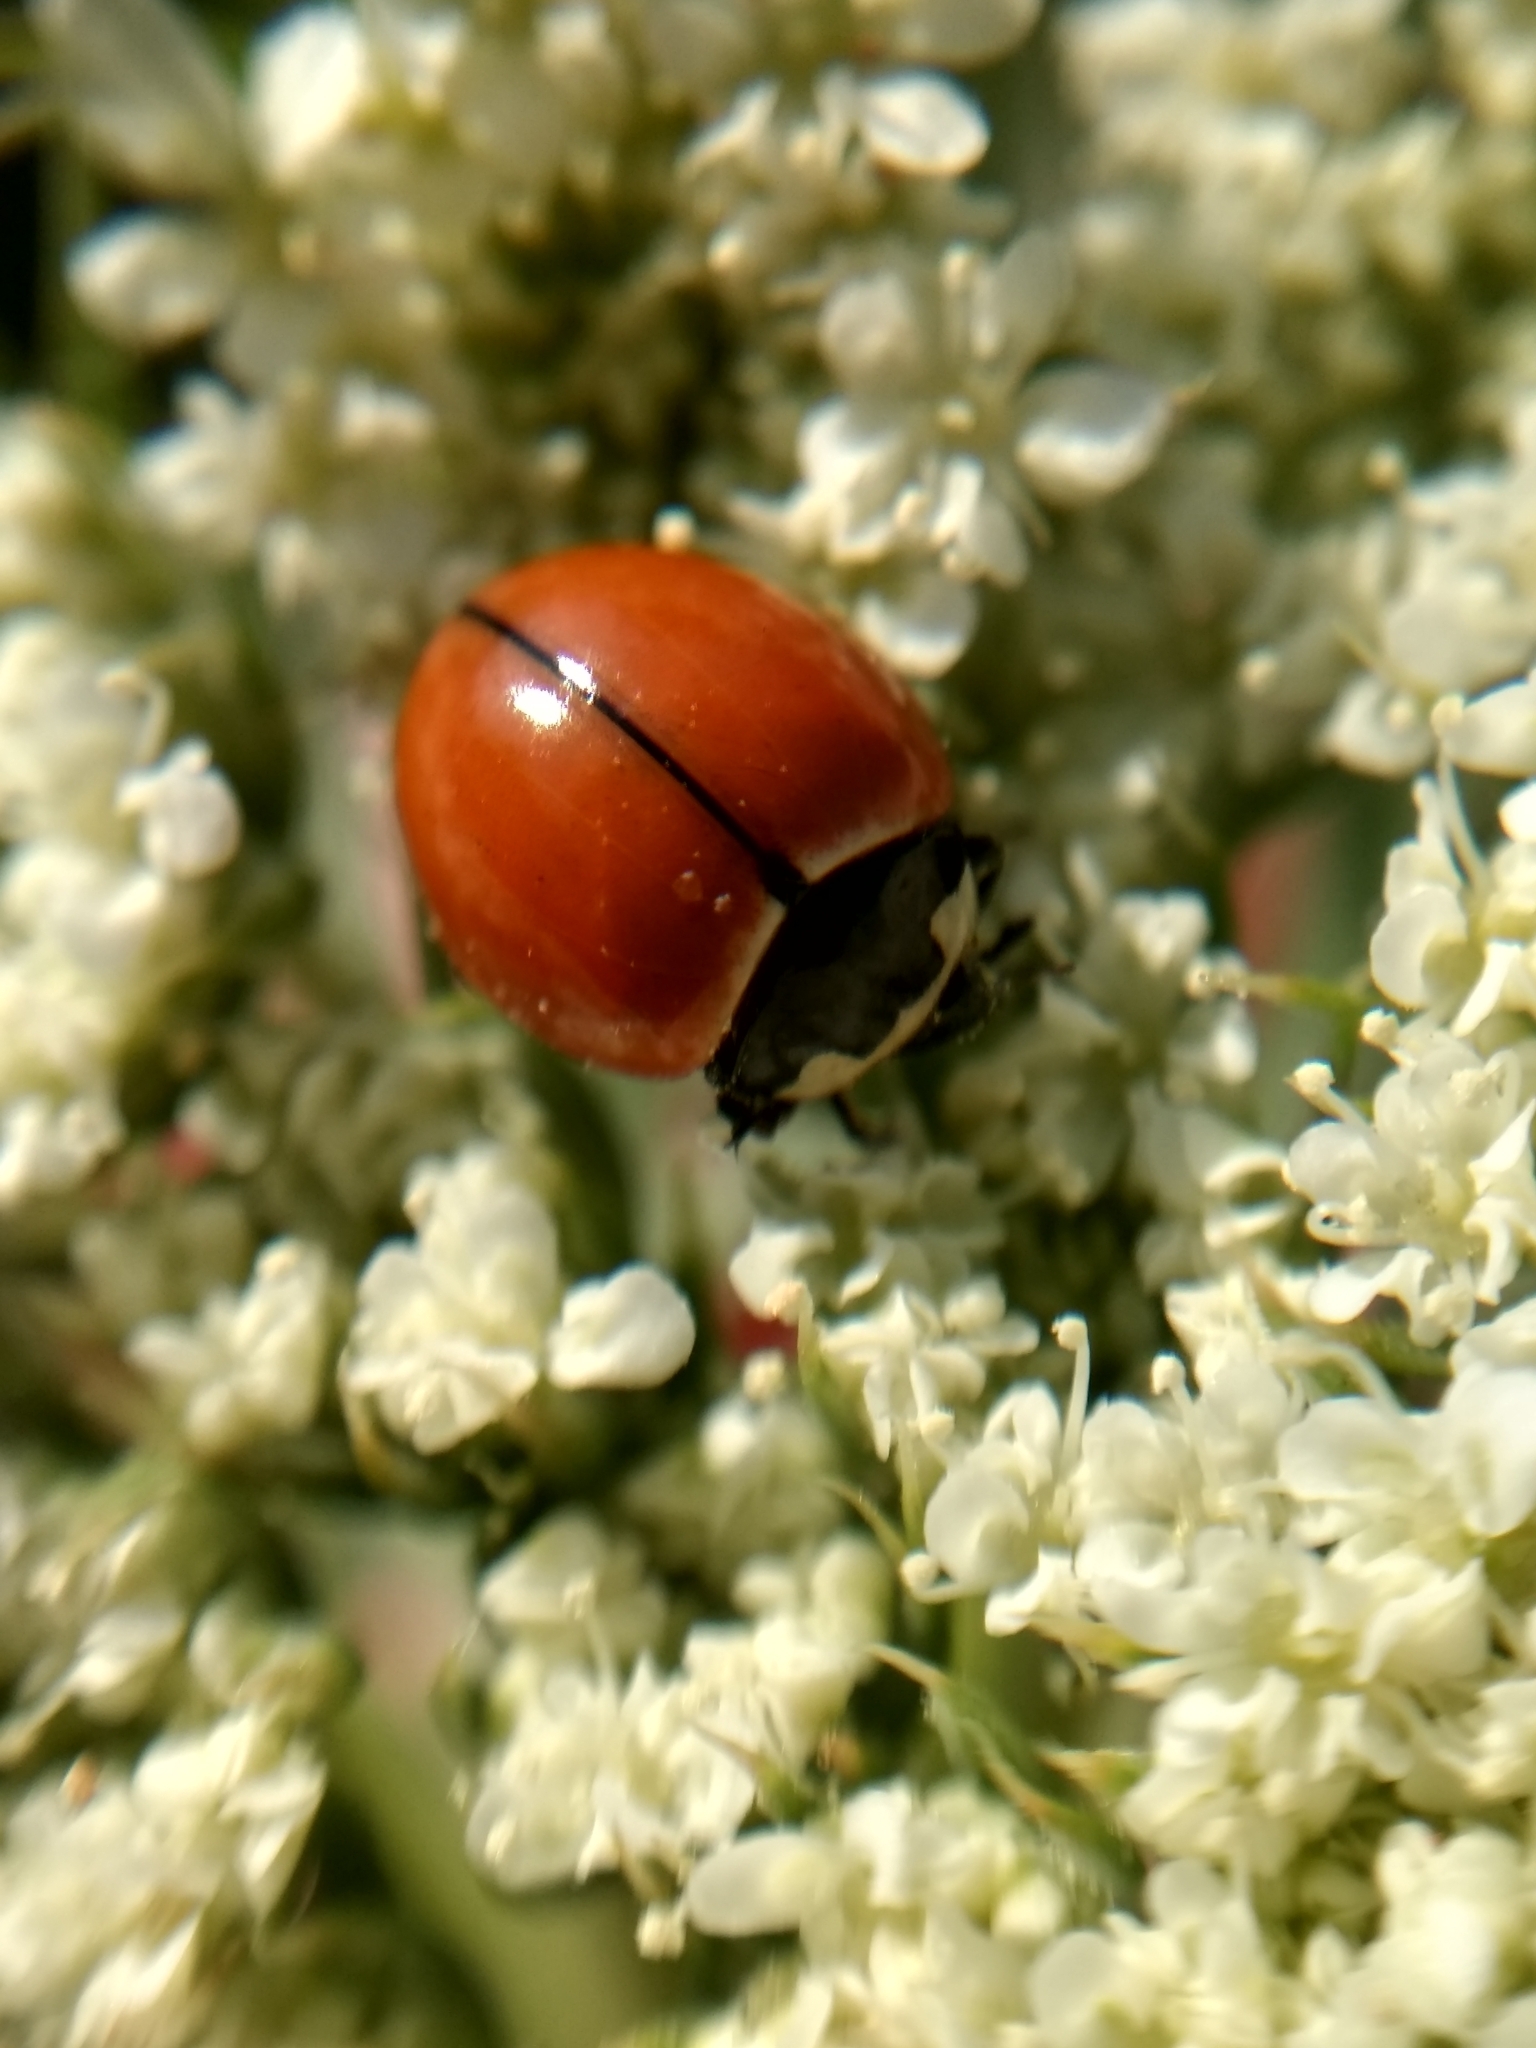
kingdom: Animalia
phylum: Arthropoda
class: Insecta
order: Coleoptera
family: Coccinellidae
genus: Coccinella
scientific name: Coccinella novemnotata
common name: Nine-spotted lady beetle
